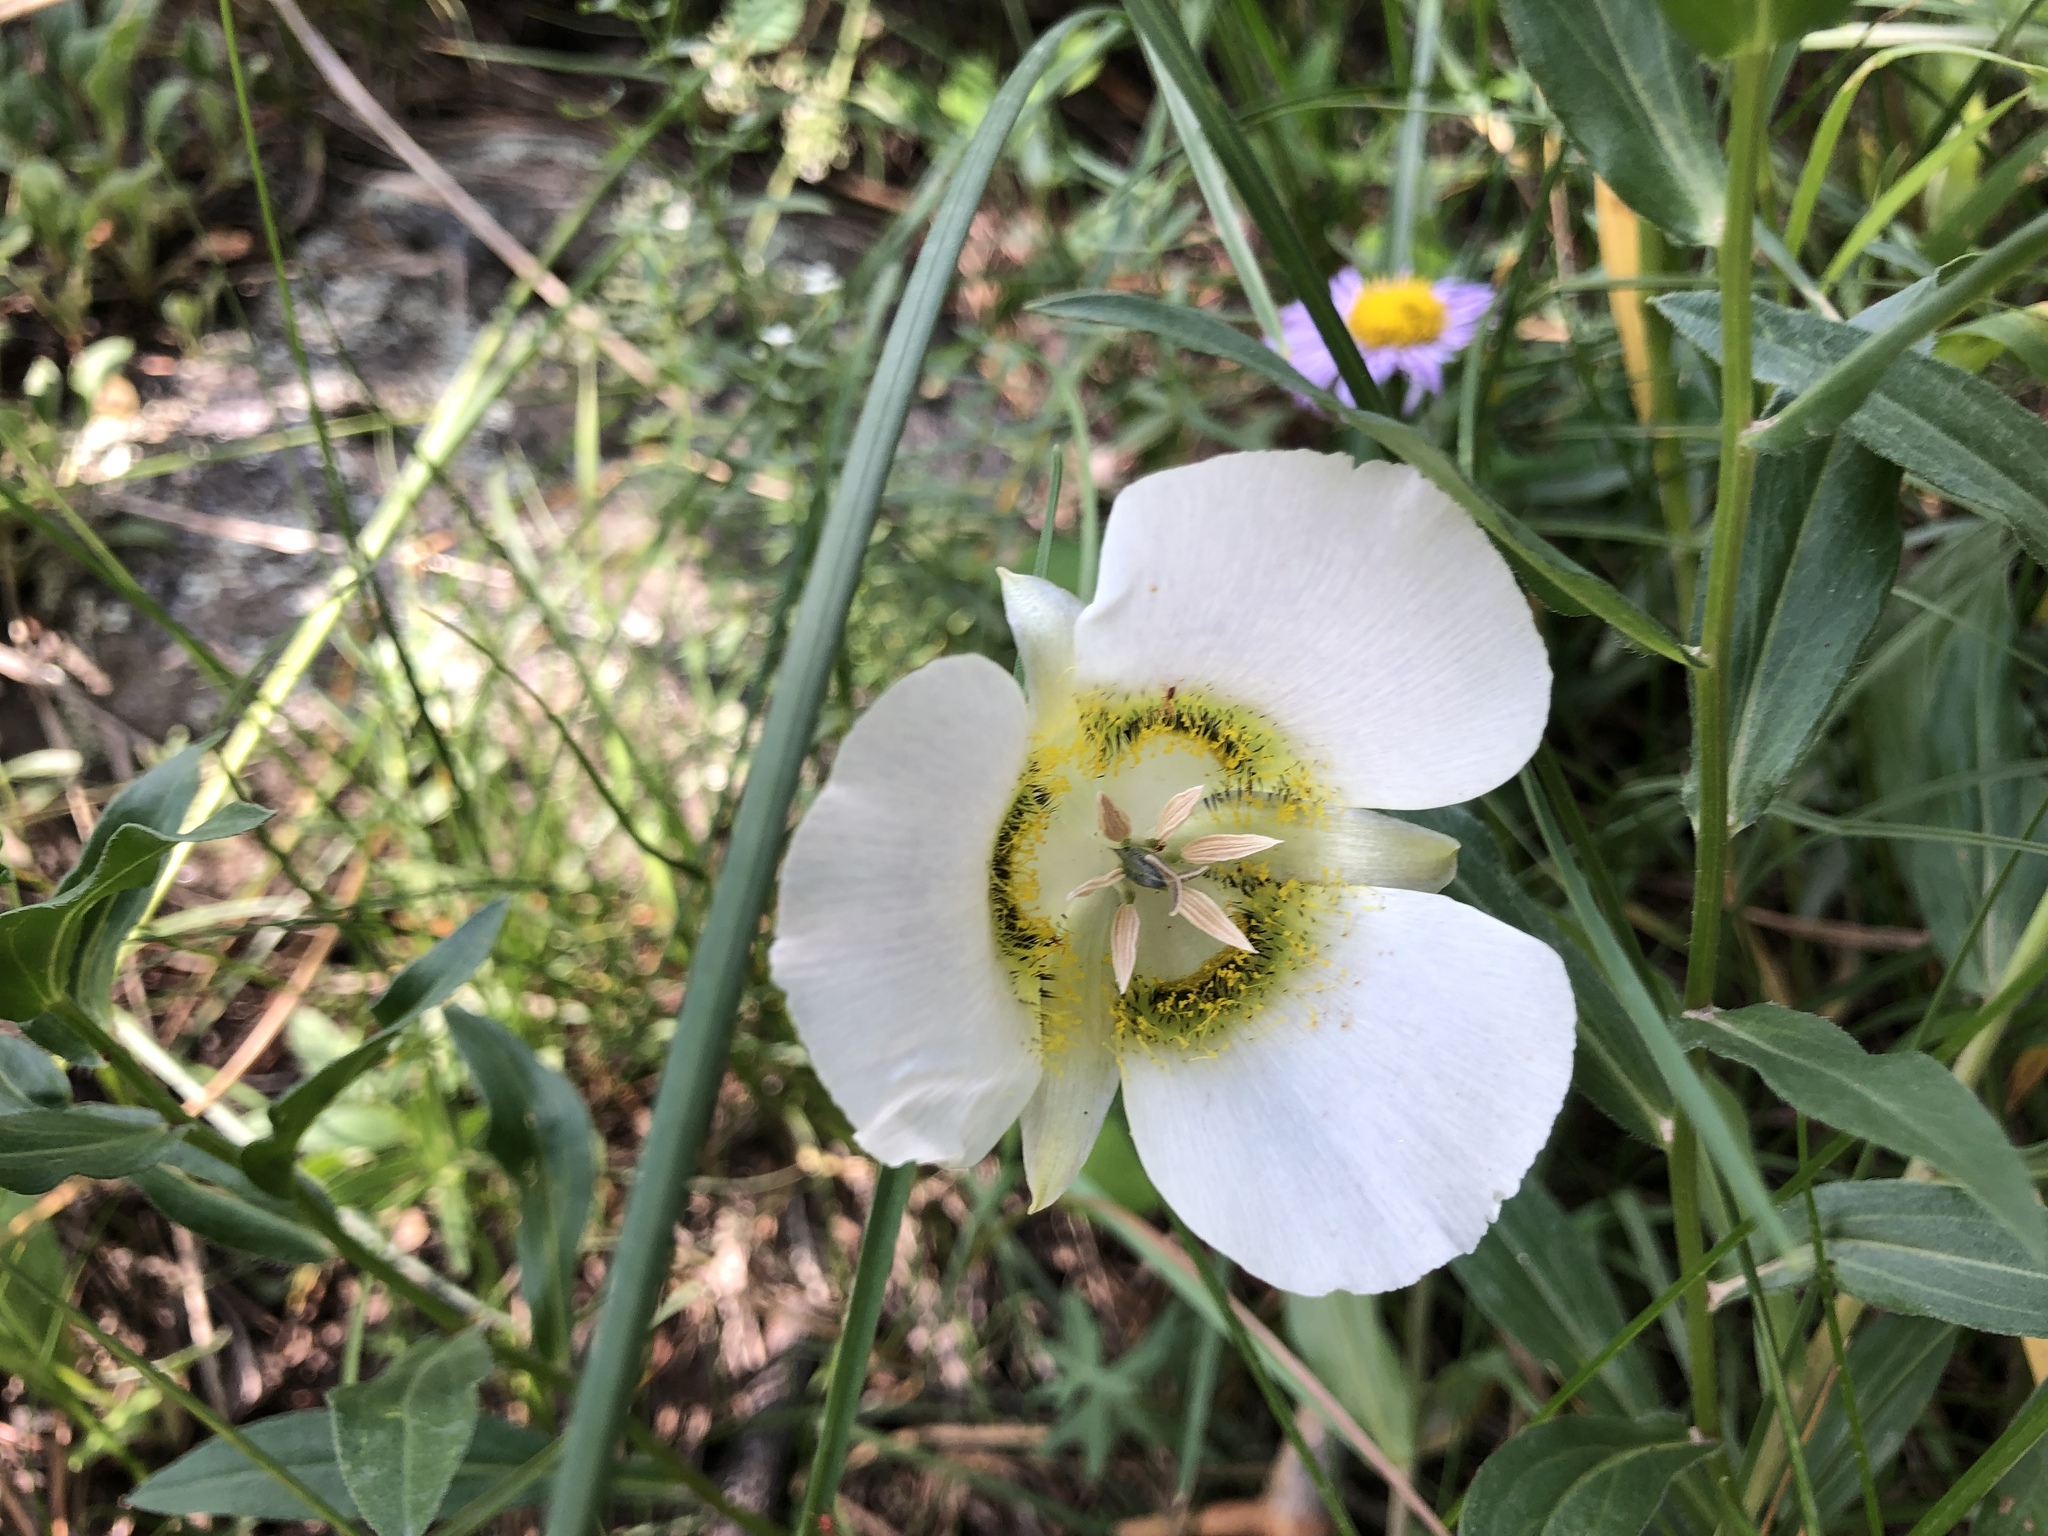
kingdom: Plantae
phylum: Tracheophyta
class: Liliopsida
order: Liliales
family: Liliaceae
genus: Calochortus
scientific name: Calochortus gunnisonii
